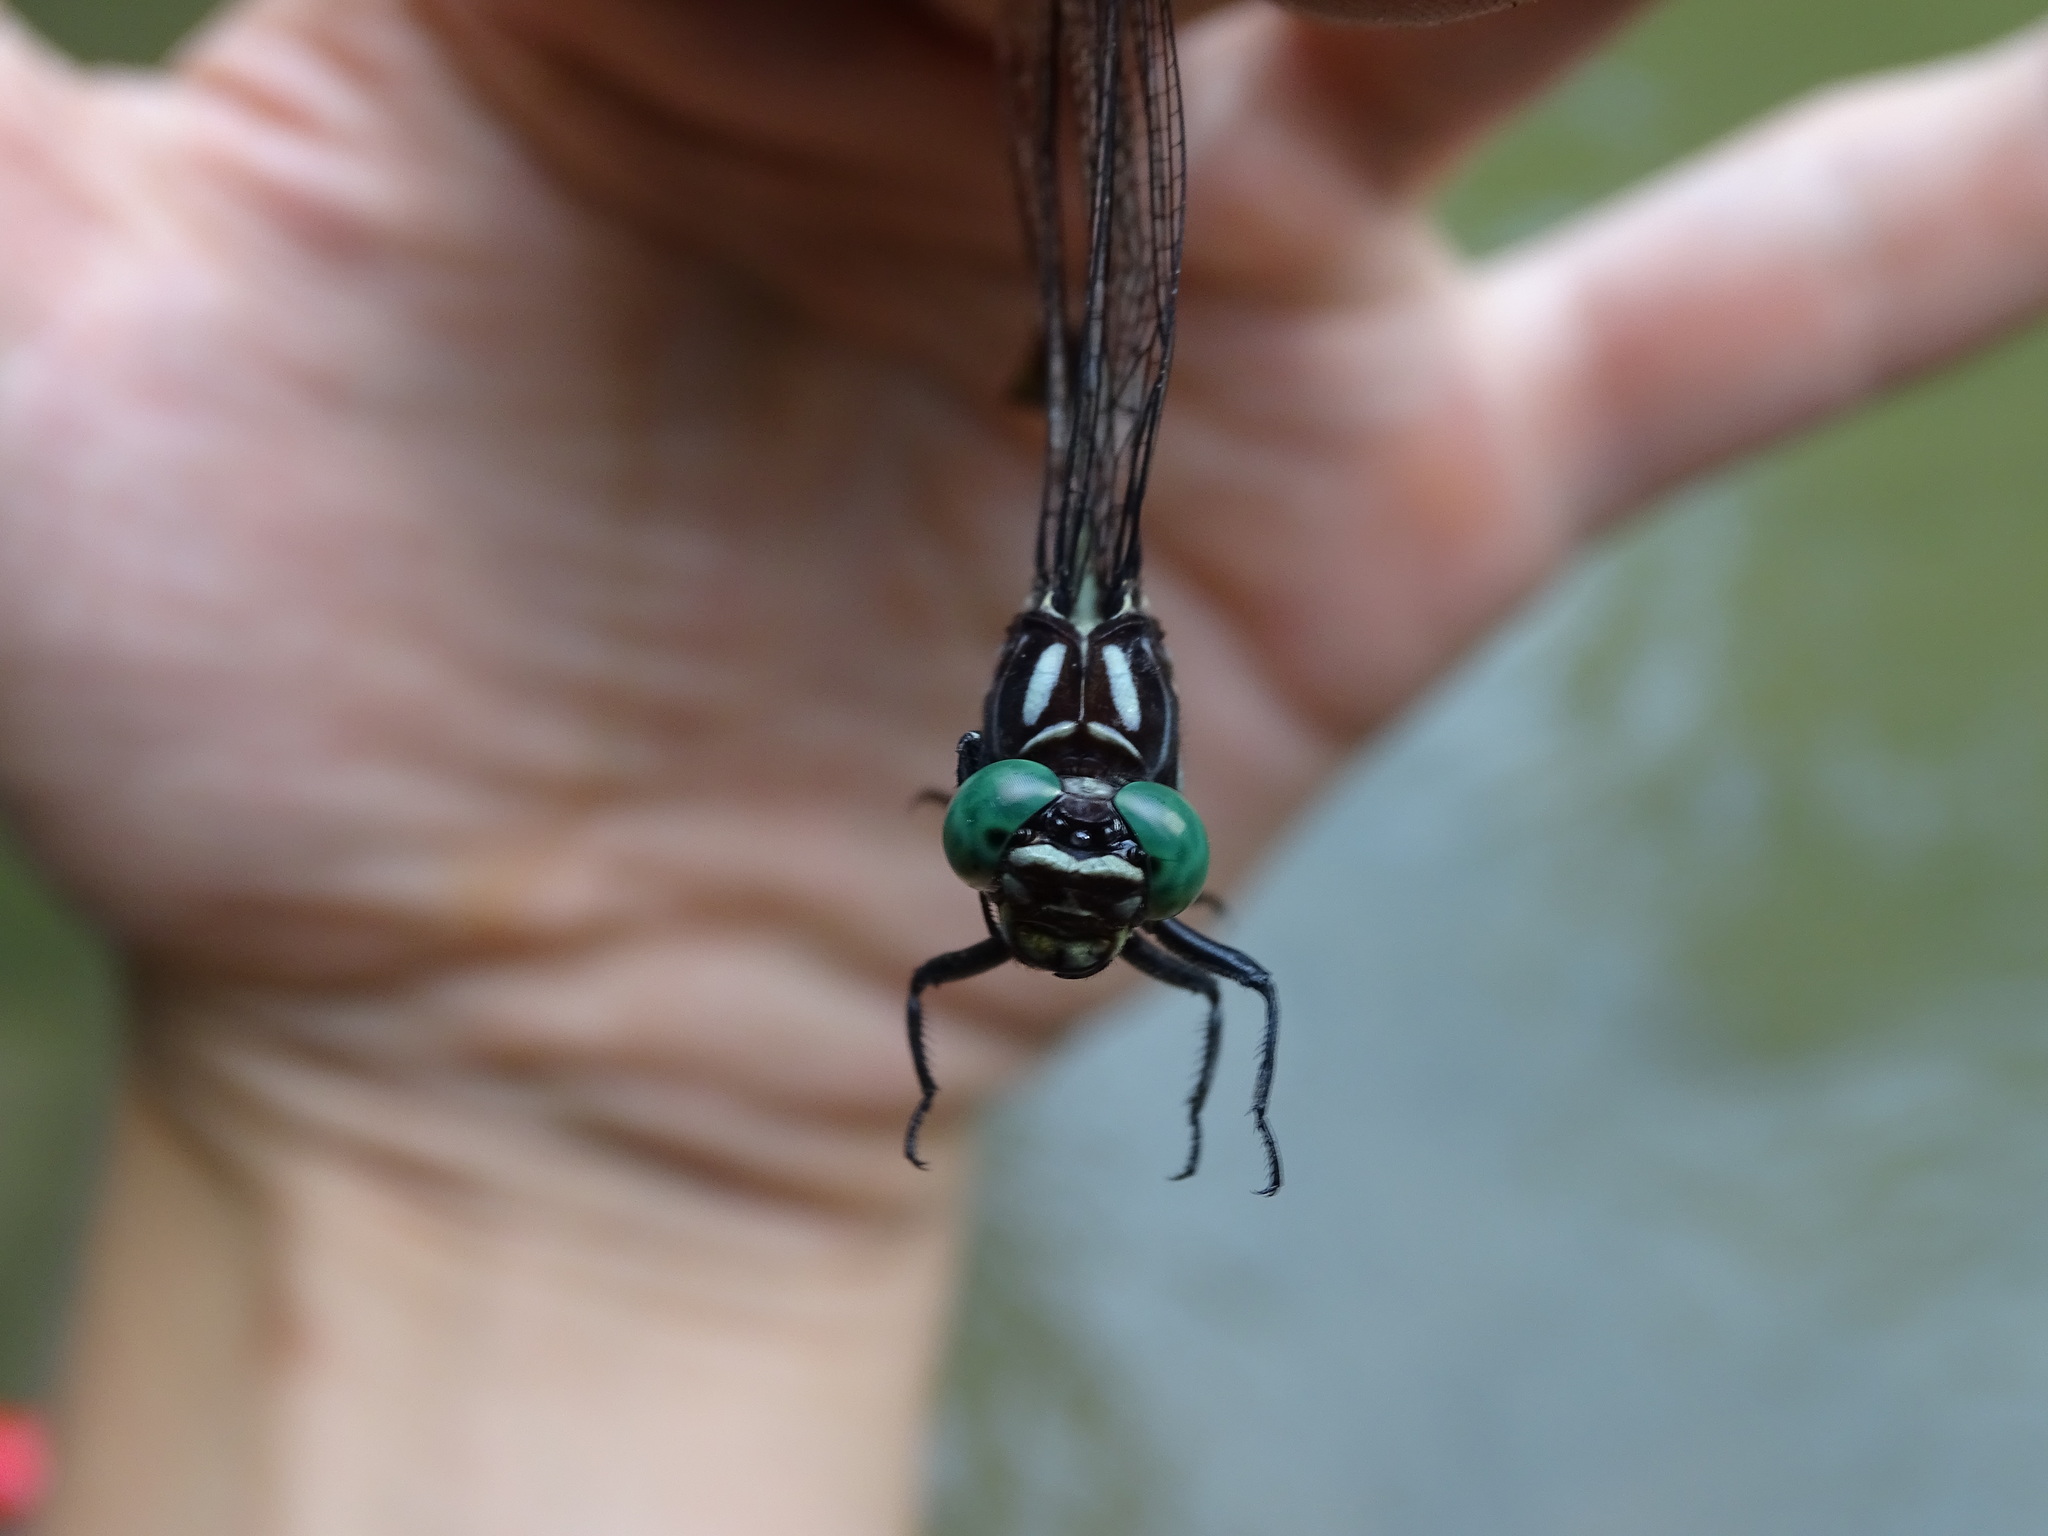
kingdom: Animalia
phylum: Arthropoda
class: Insecta
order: Odonata
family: Gomphidae
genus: Stylurus
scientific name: Stylurus laurae
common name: Laura's clubtail
